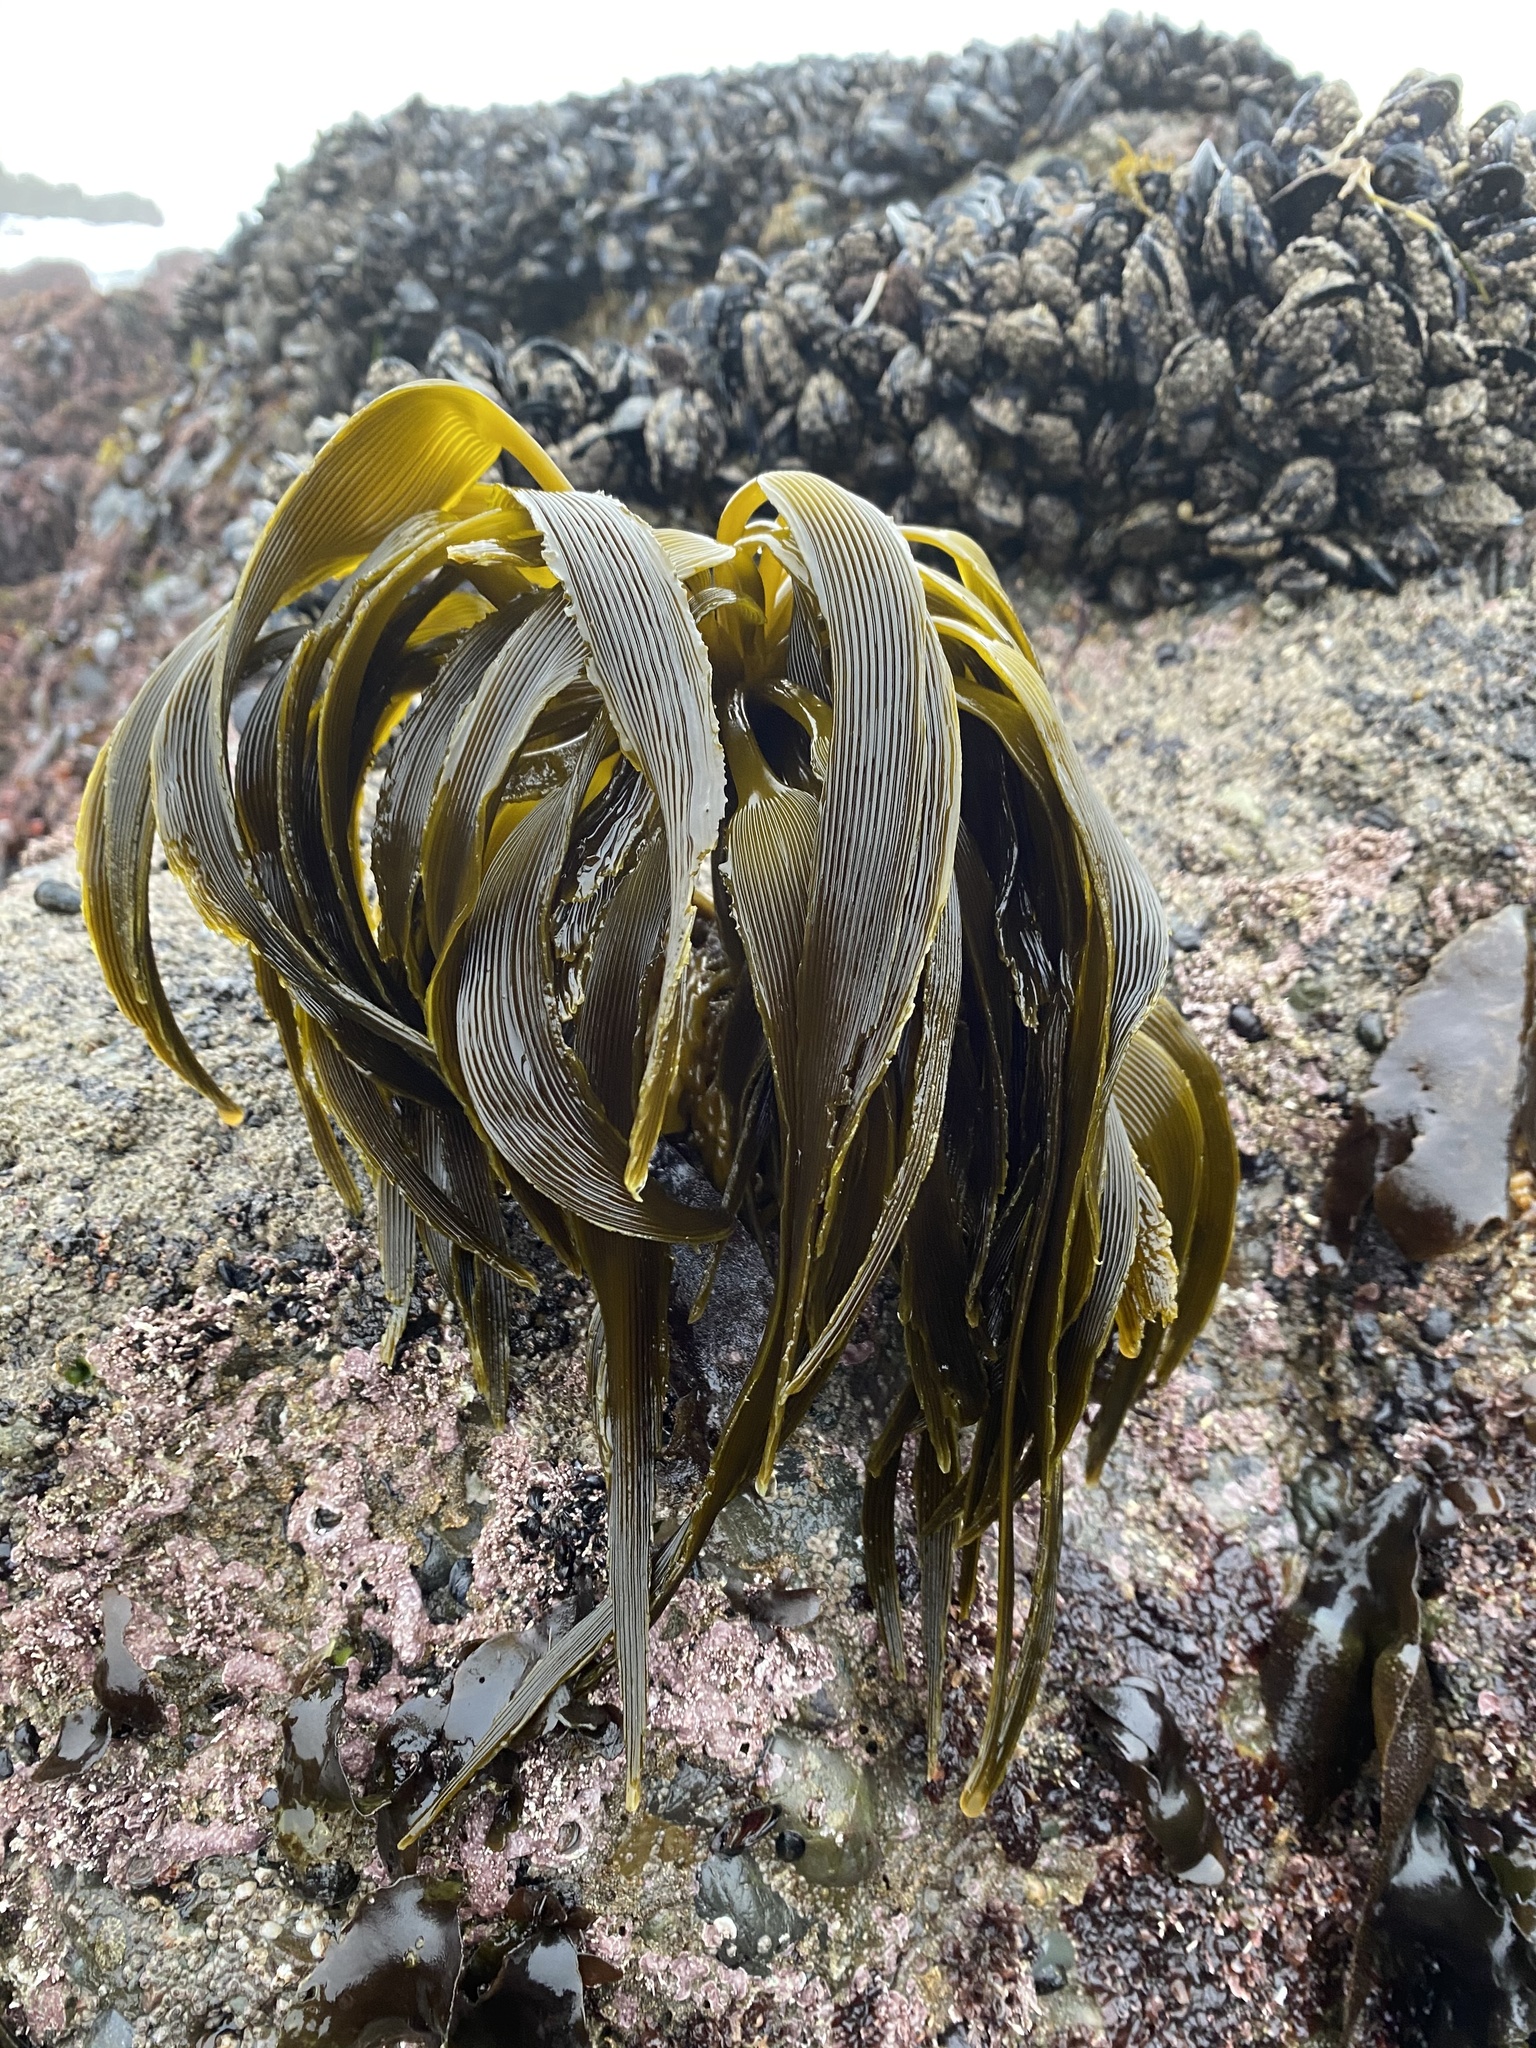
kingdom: Chromista
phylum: Ochrophyta
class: Phaeophyceae
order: Laminariales
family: Laminariaceae
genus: Postelsia
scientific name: Postelsia palmiformis
